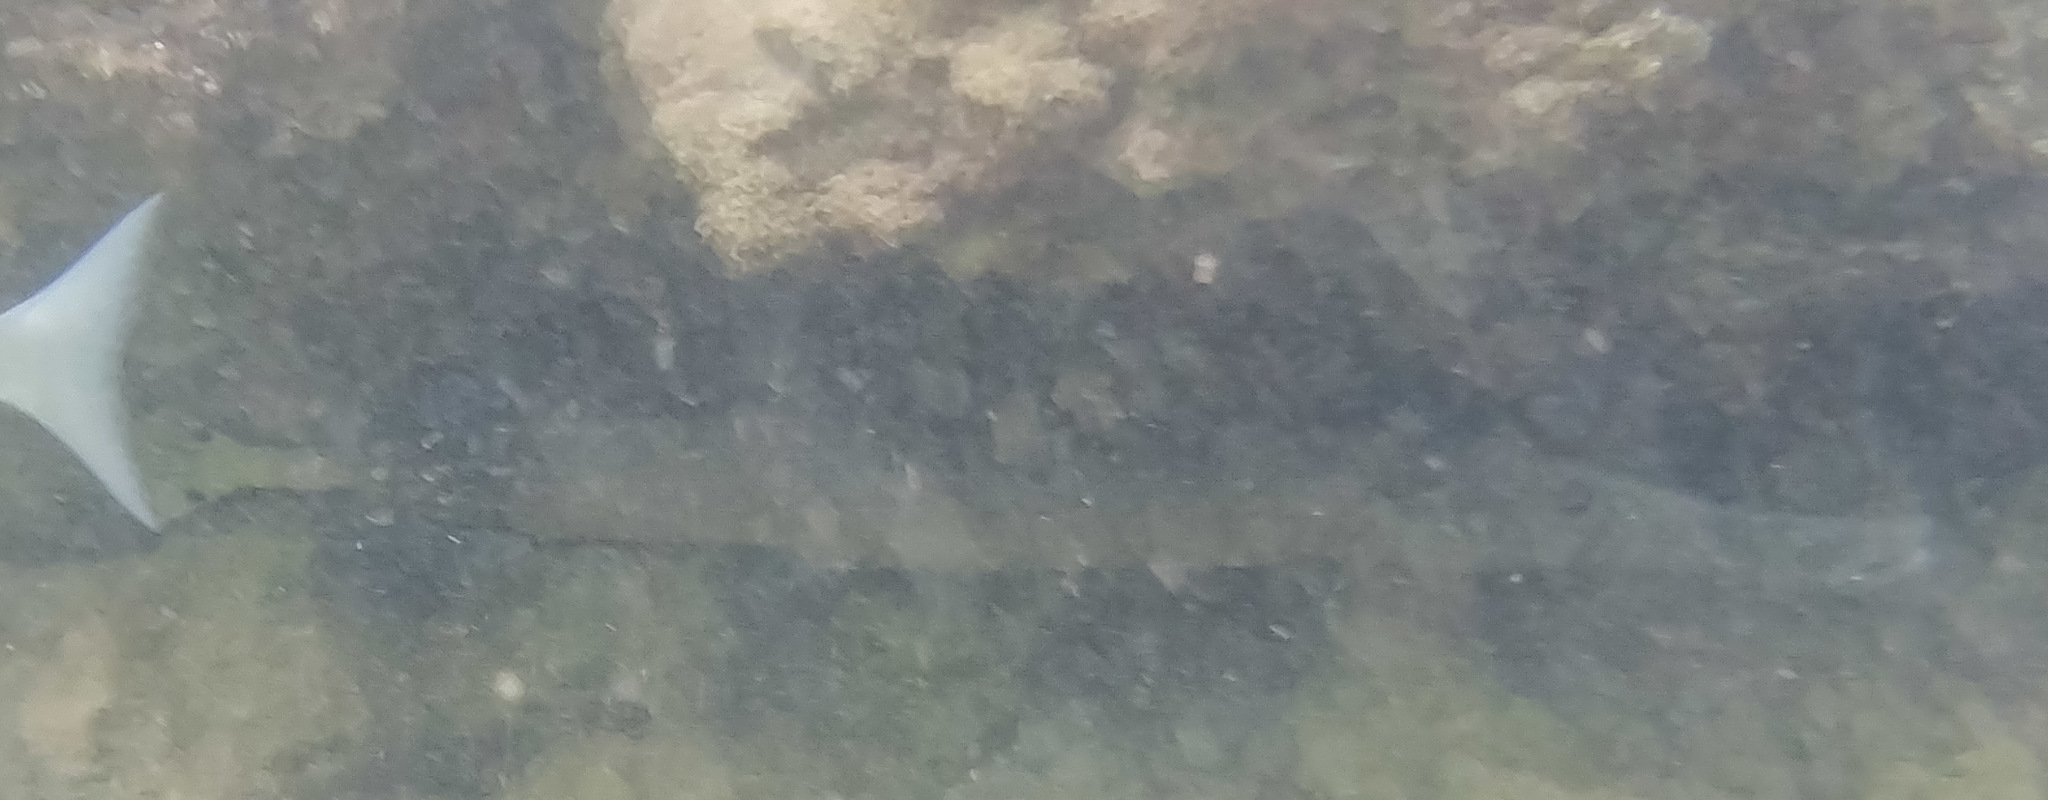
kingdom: Animalia
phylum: Chordata
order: Syngnathiformes
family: Aulostomidae
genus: Aulostomus
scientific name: Aulostomus chinensis
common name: Chinese trumpetfish
